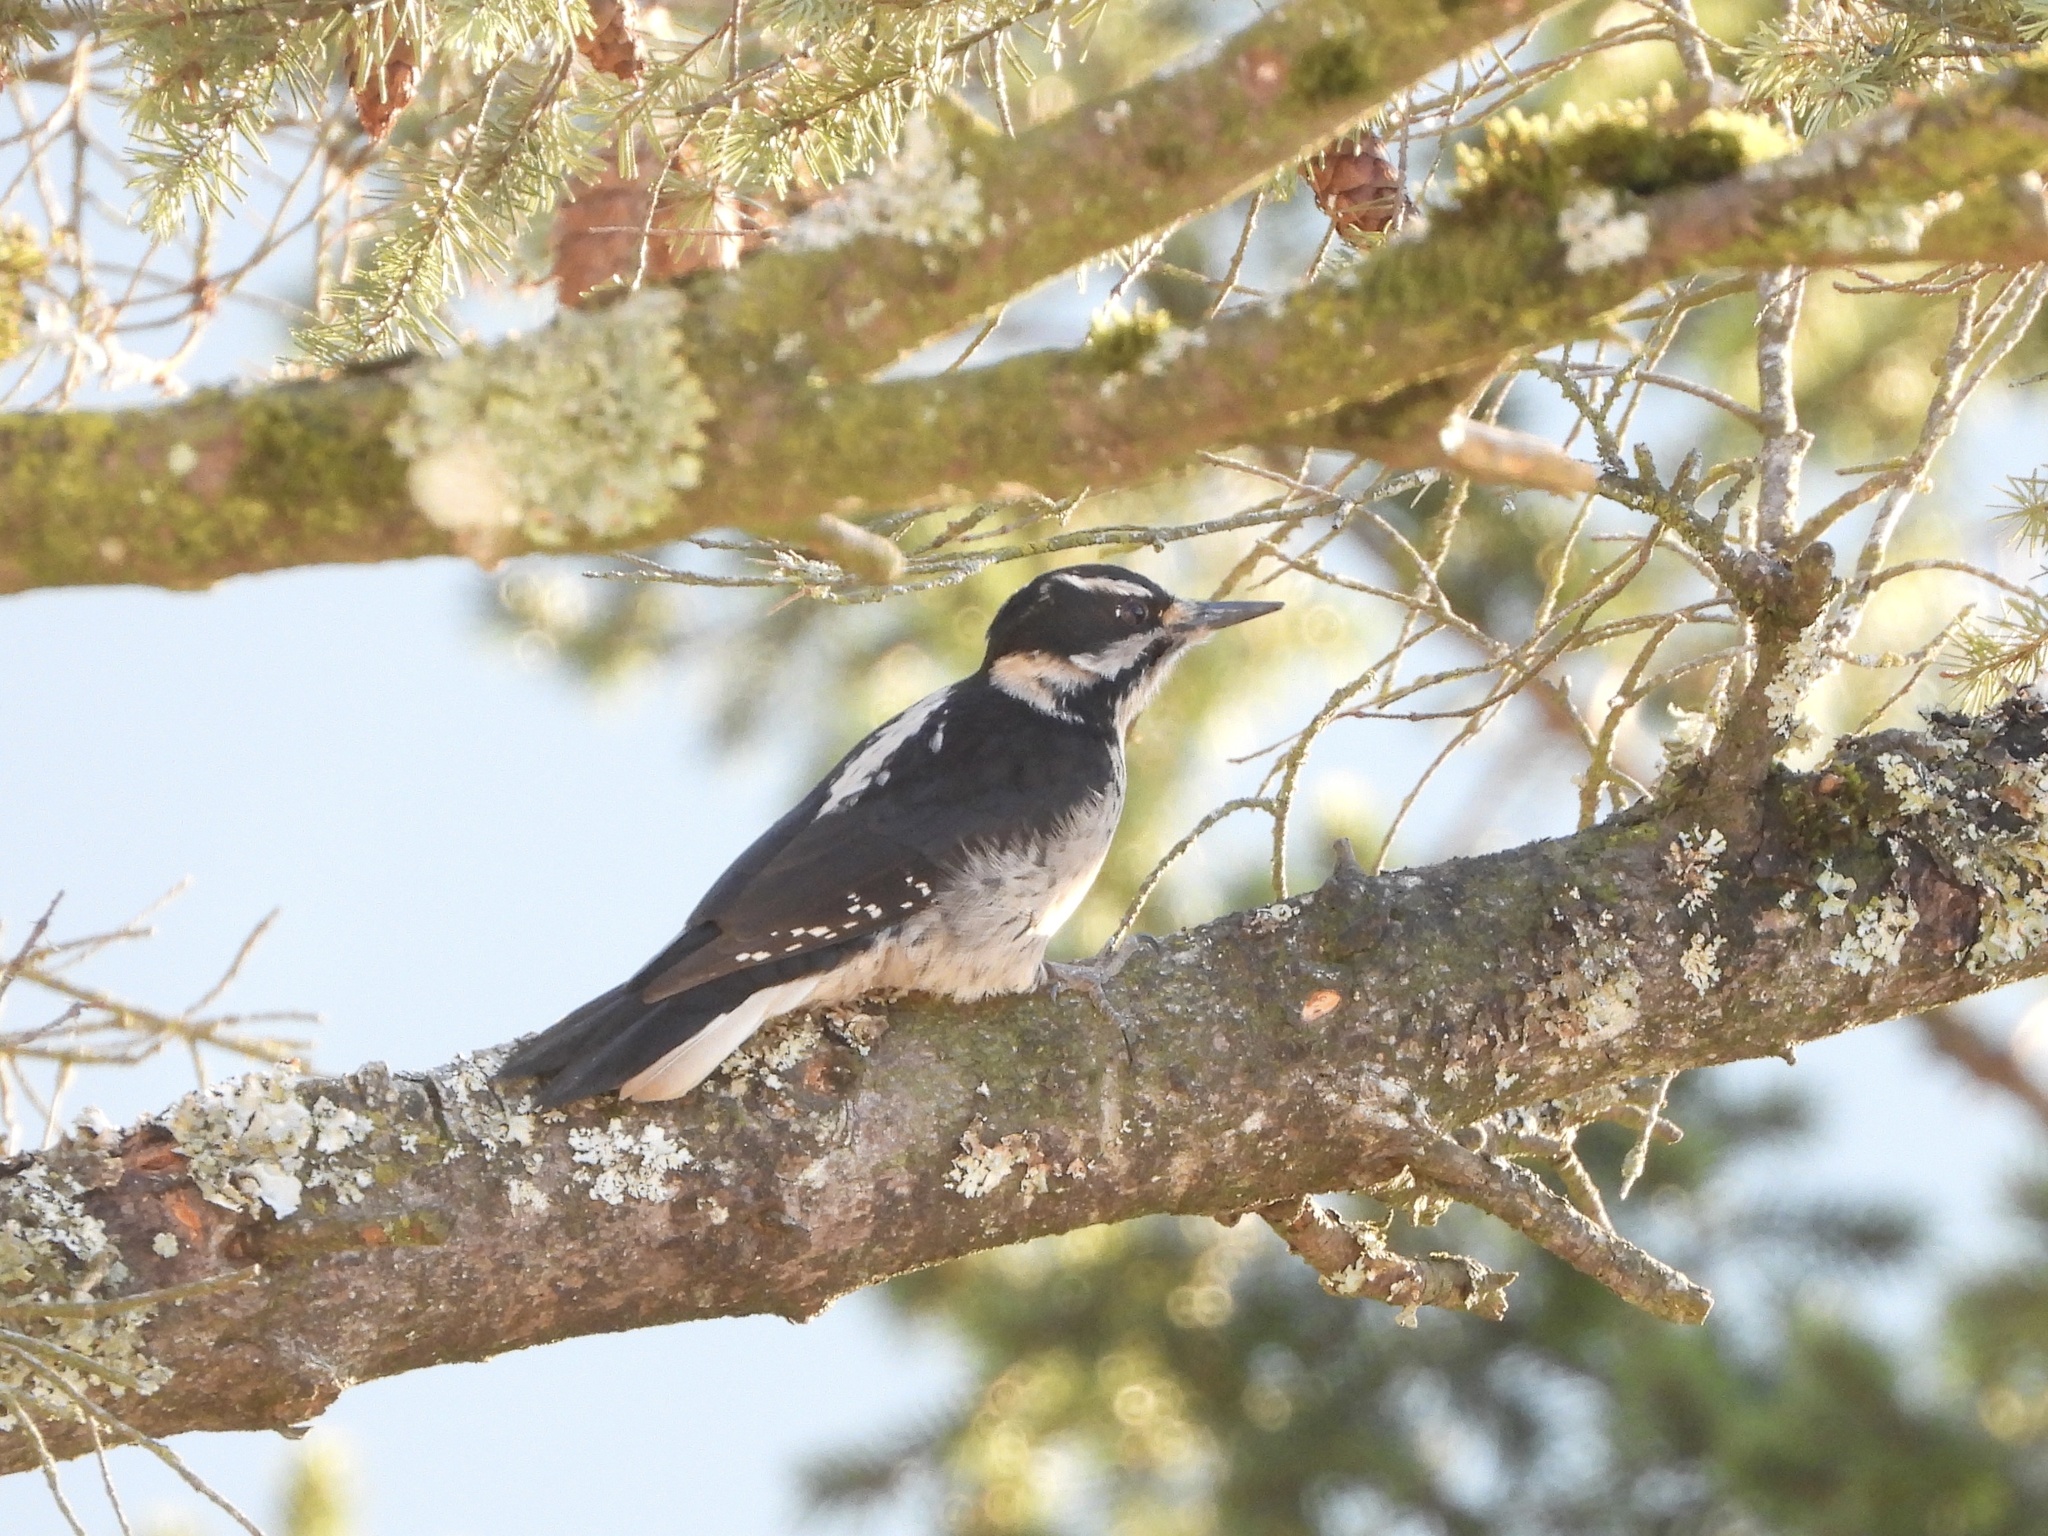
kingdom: Animalia
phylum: Chordata
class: Aves
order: Piciformes
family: Picidae
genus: Leuconotopicus
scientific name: Leuconotopicus villosus
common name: Hairy woodpecker
